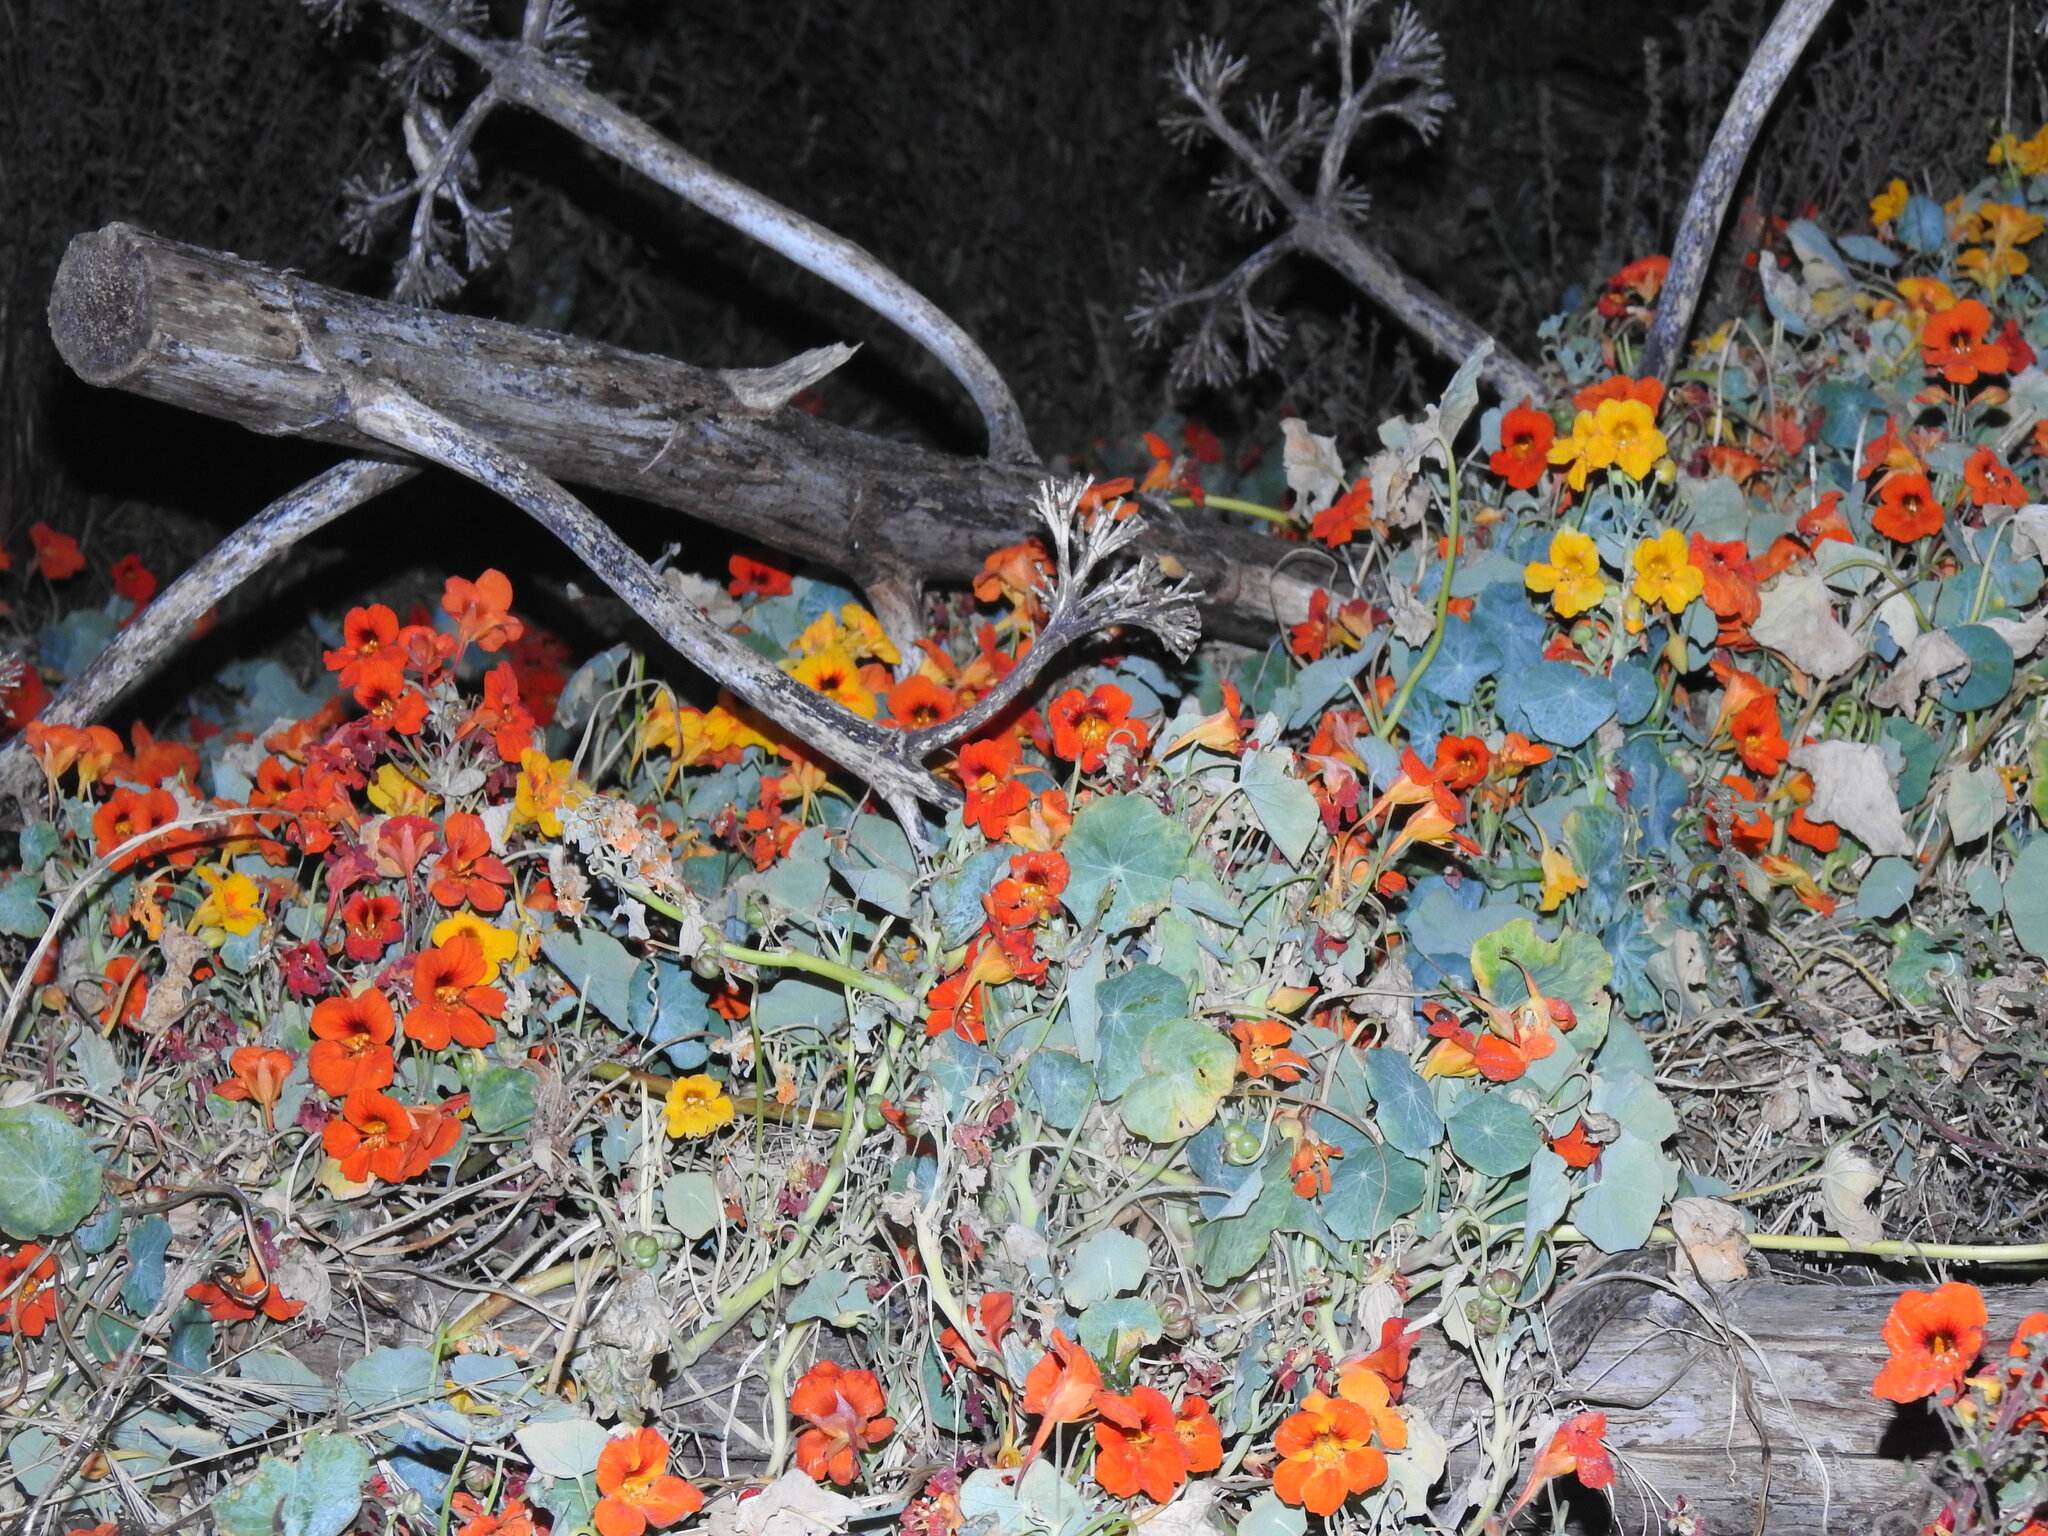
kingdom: Plantae
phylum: Tracheophyta
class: Magnoliopsida
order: Brassicales
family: Tropaeolaceae
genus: Tropaeolum
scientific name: Tropaeolum majus
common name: Nasturtium
